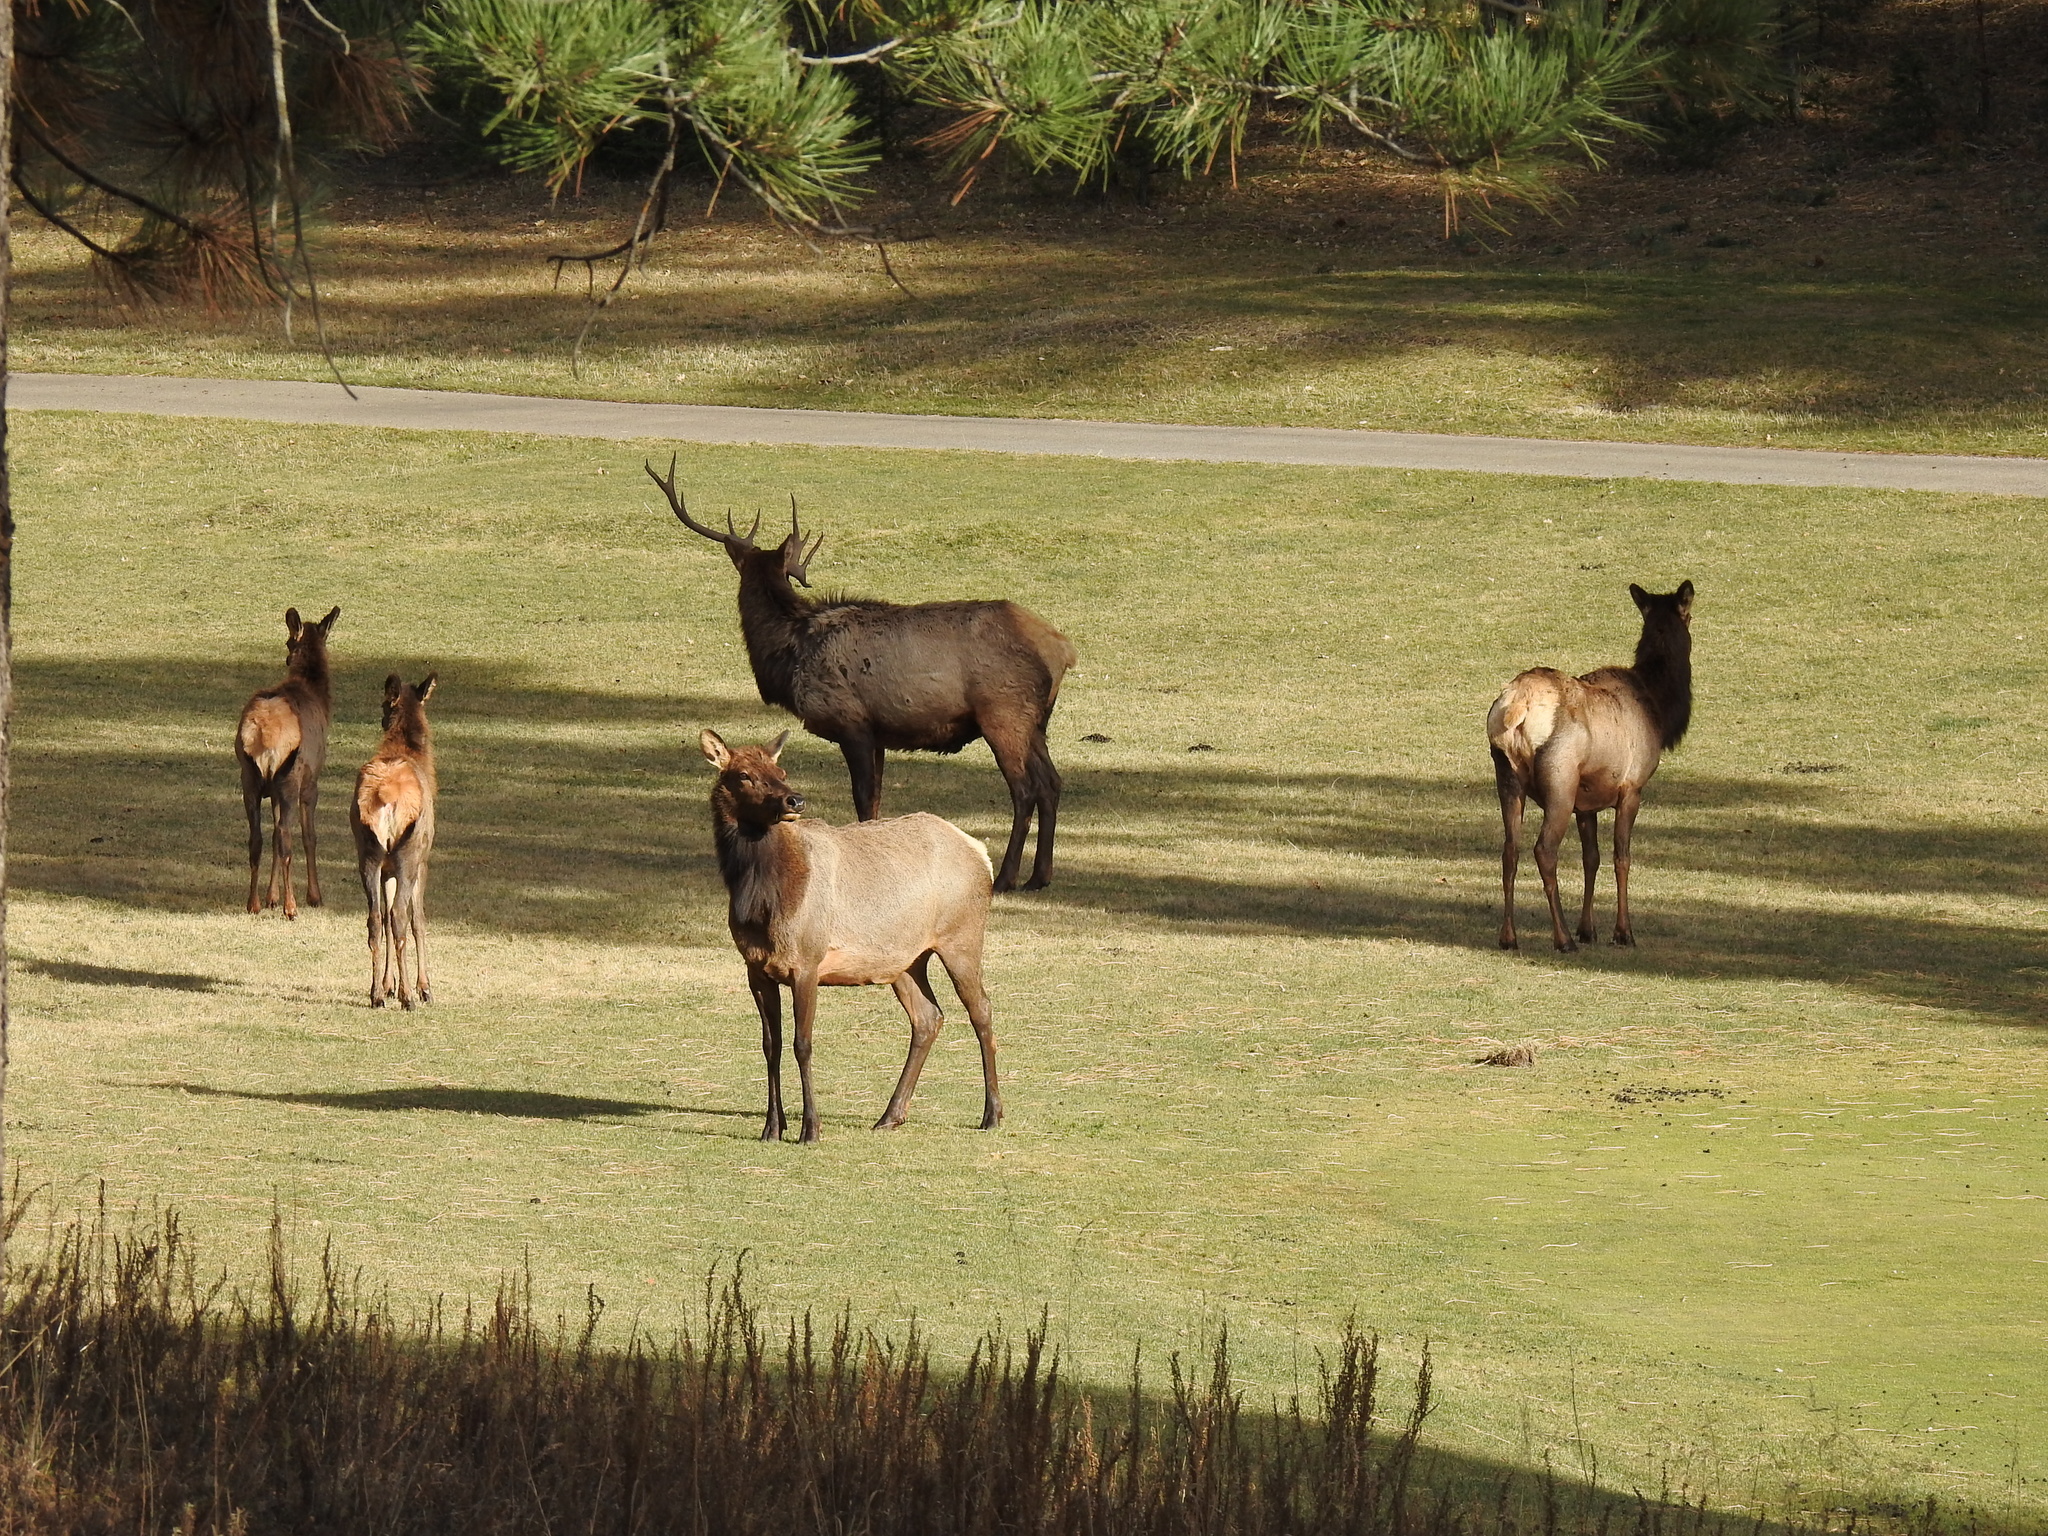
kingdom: Animalia
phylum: Chordata
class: Mammalia
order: Artiodactyla
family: Cervidae
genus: Cervus
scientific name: Cervus elaphus
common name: Red deer
